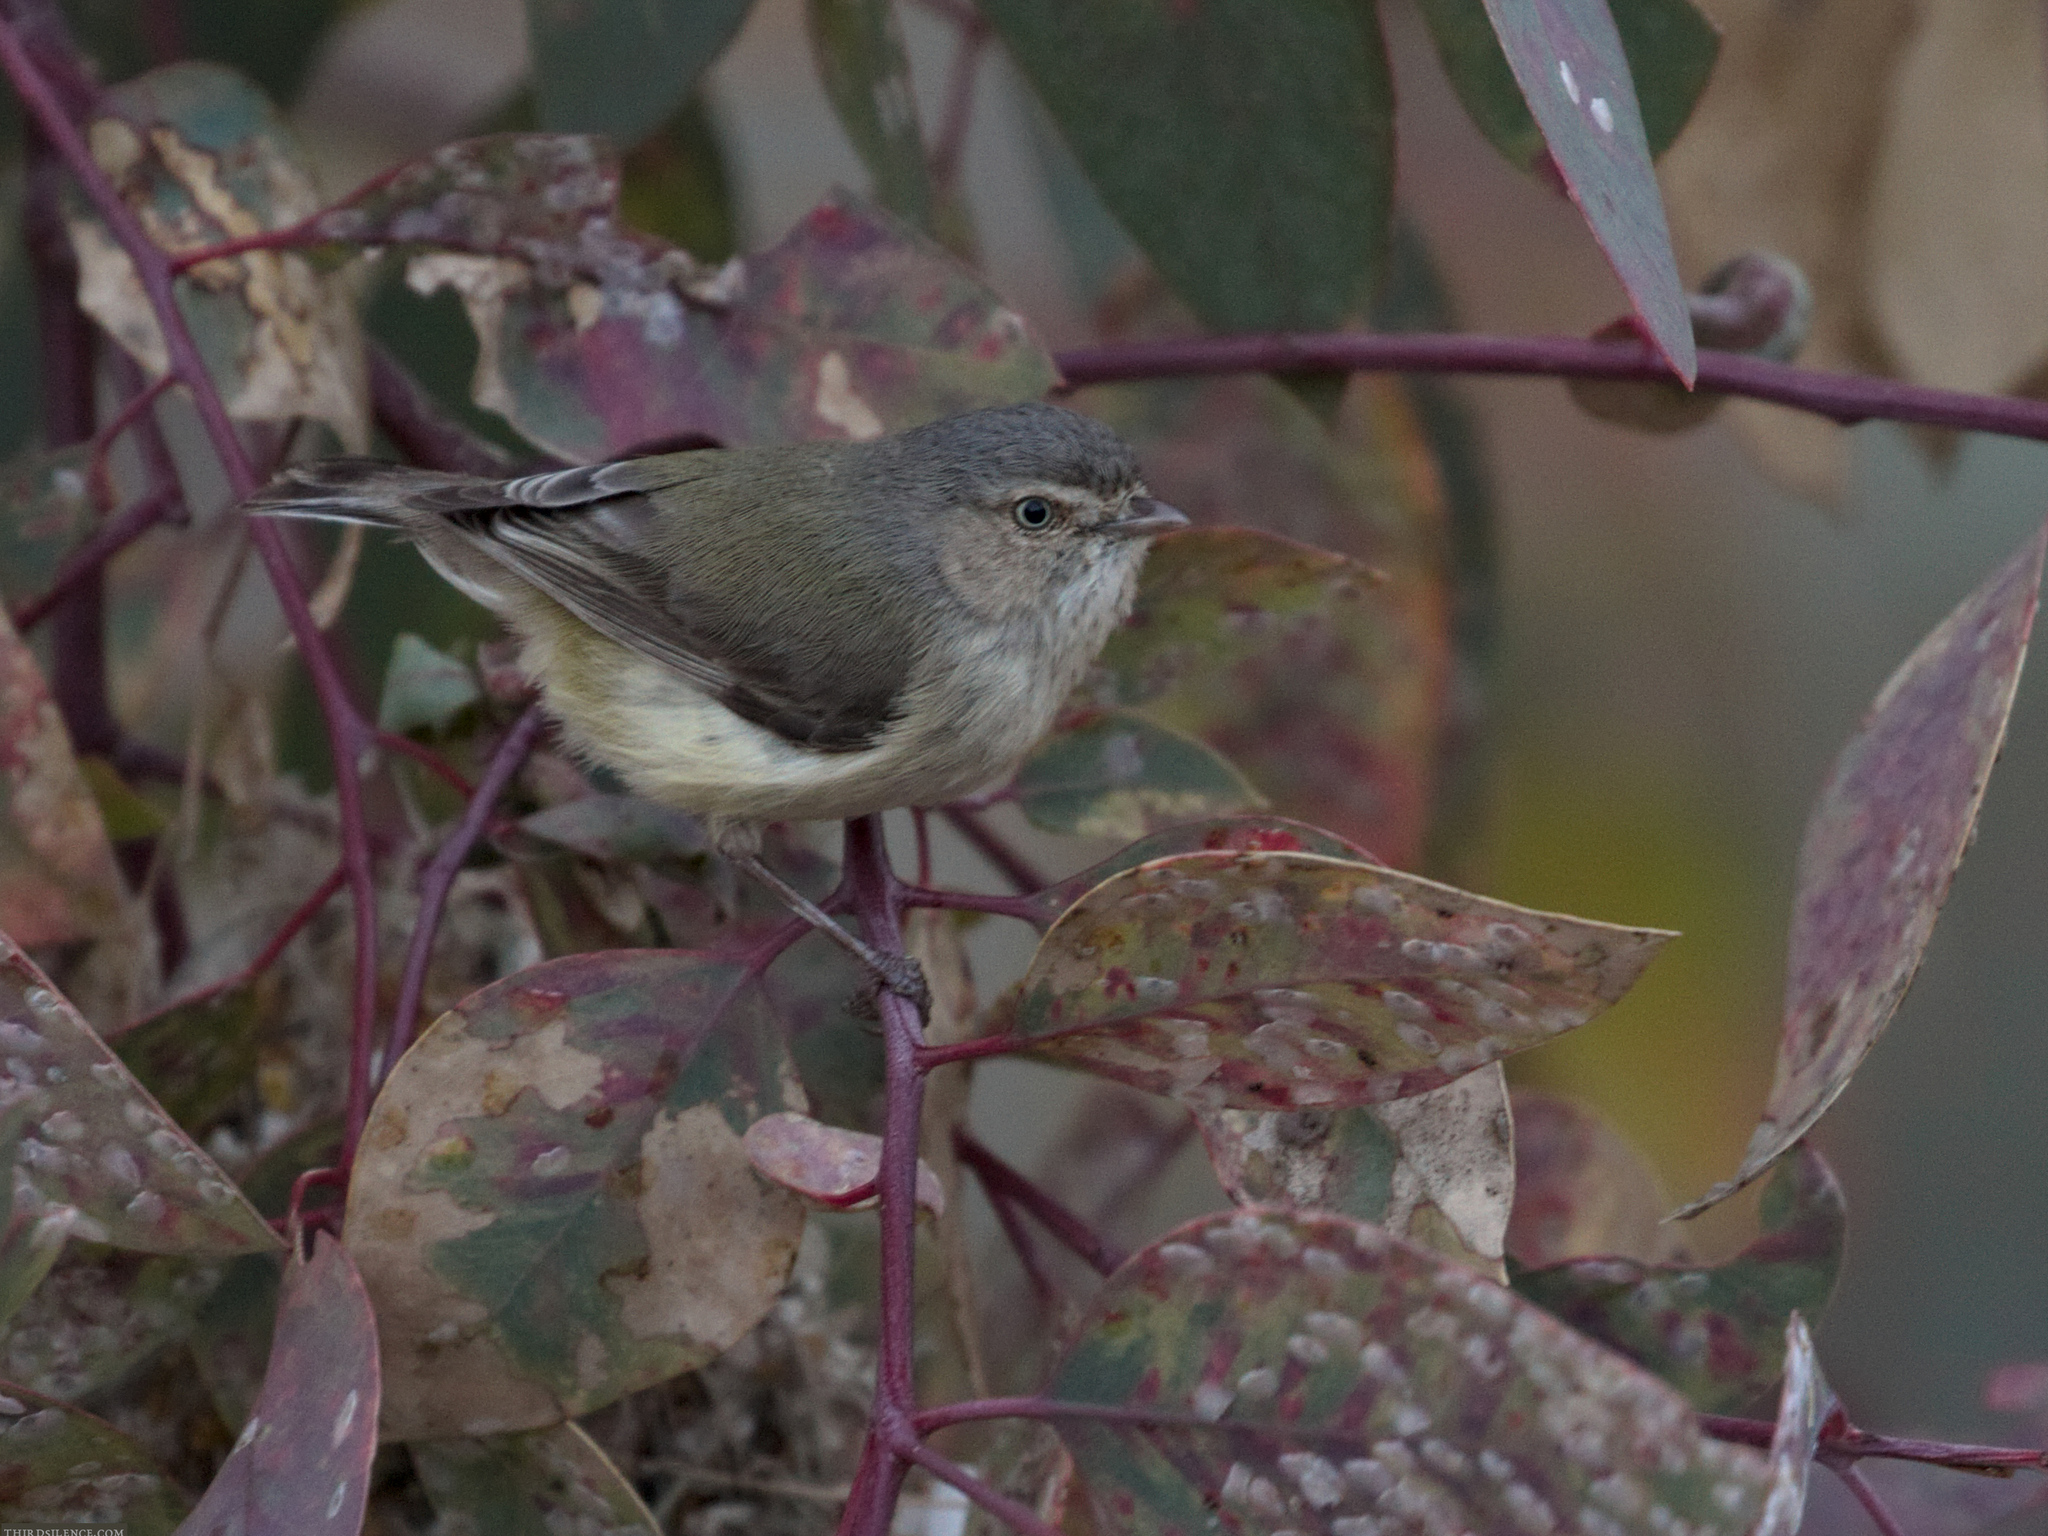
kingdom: Animalia
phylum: Chordata
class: Aves
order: Passeriformes
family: Acanthizidae
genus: Smicrornis
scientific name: Smicrornis brevirostris
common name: Weebill
